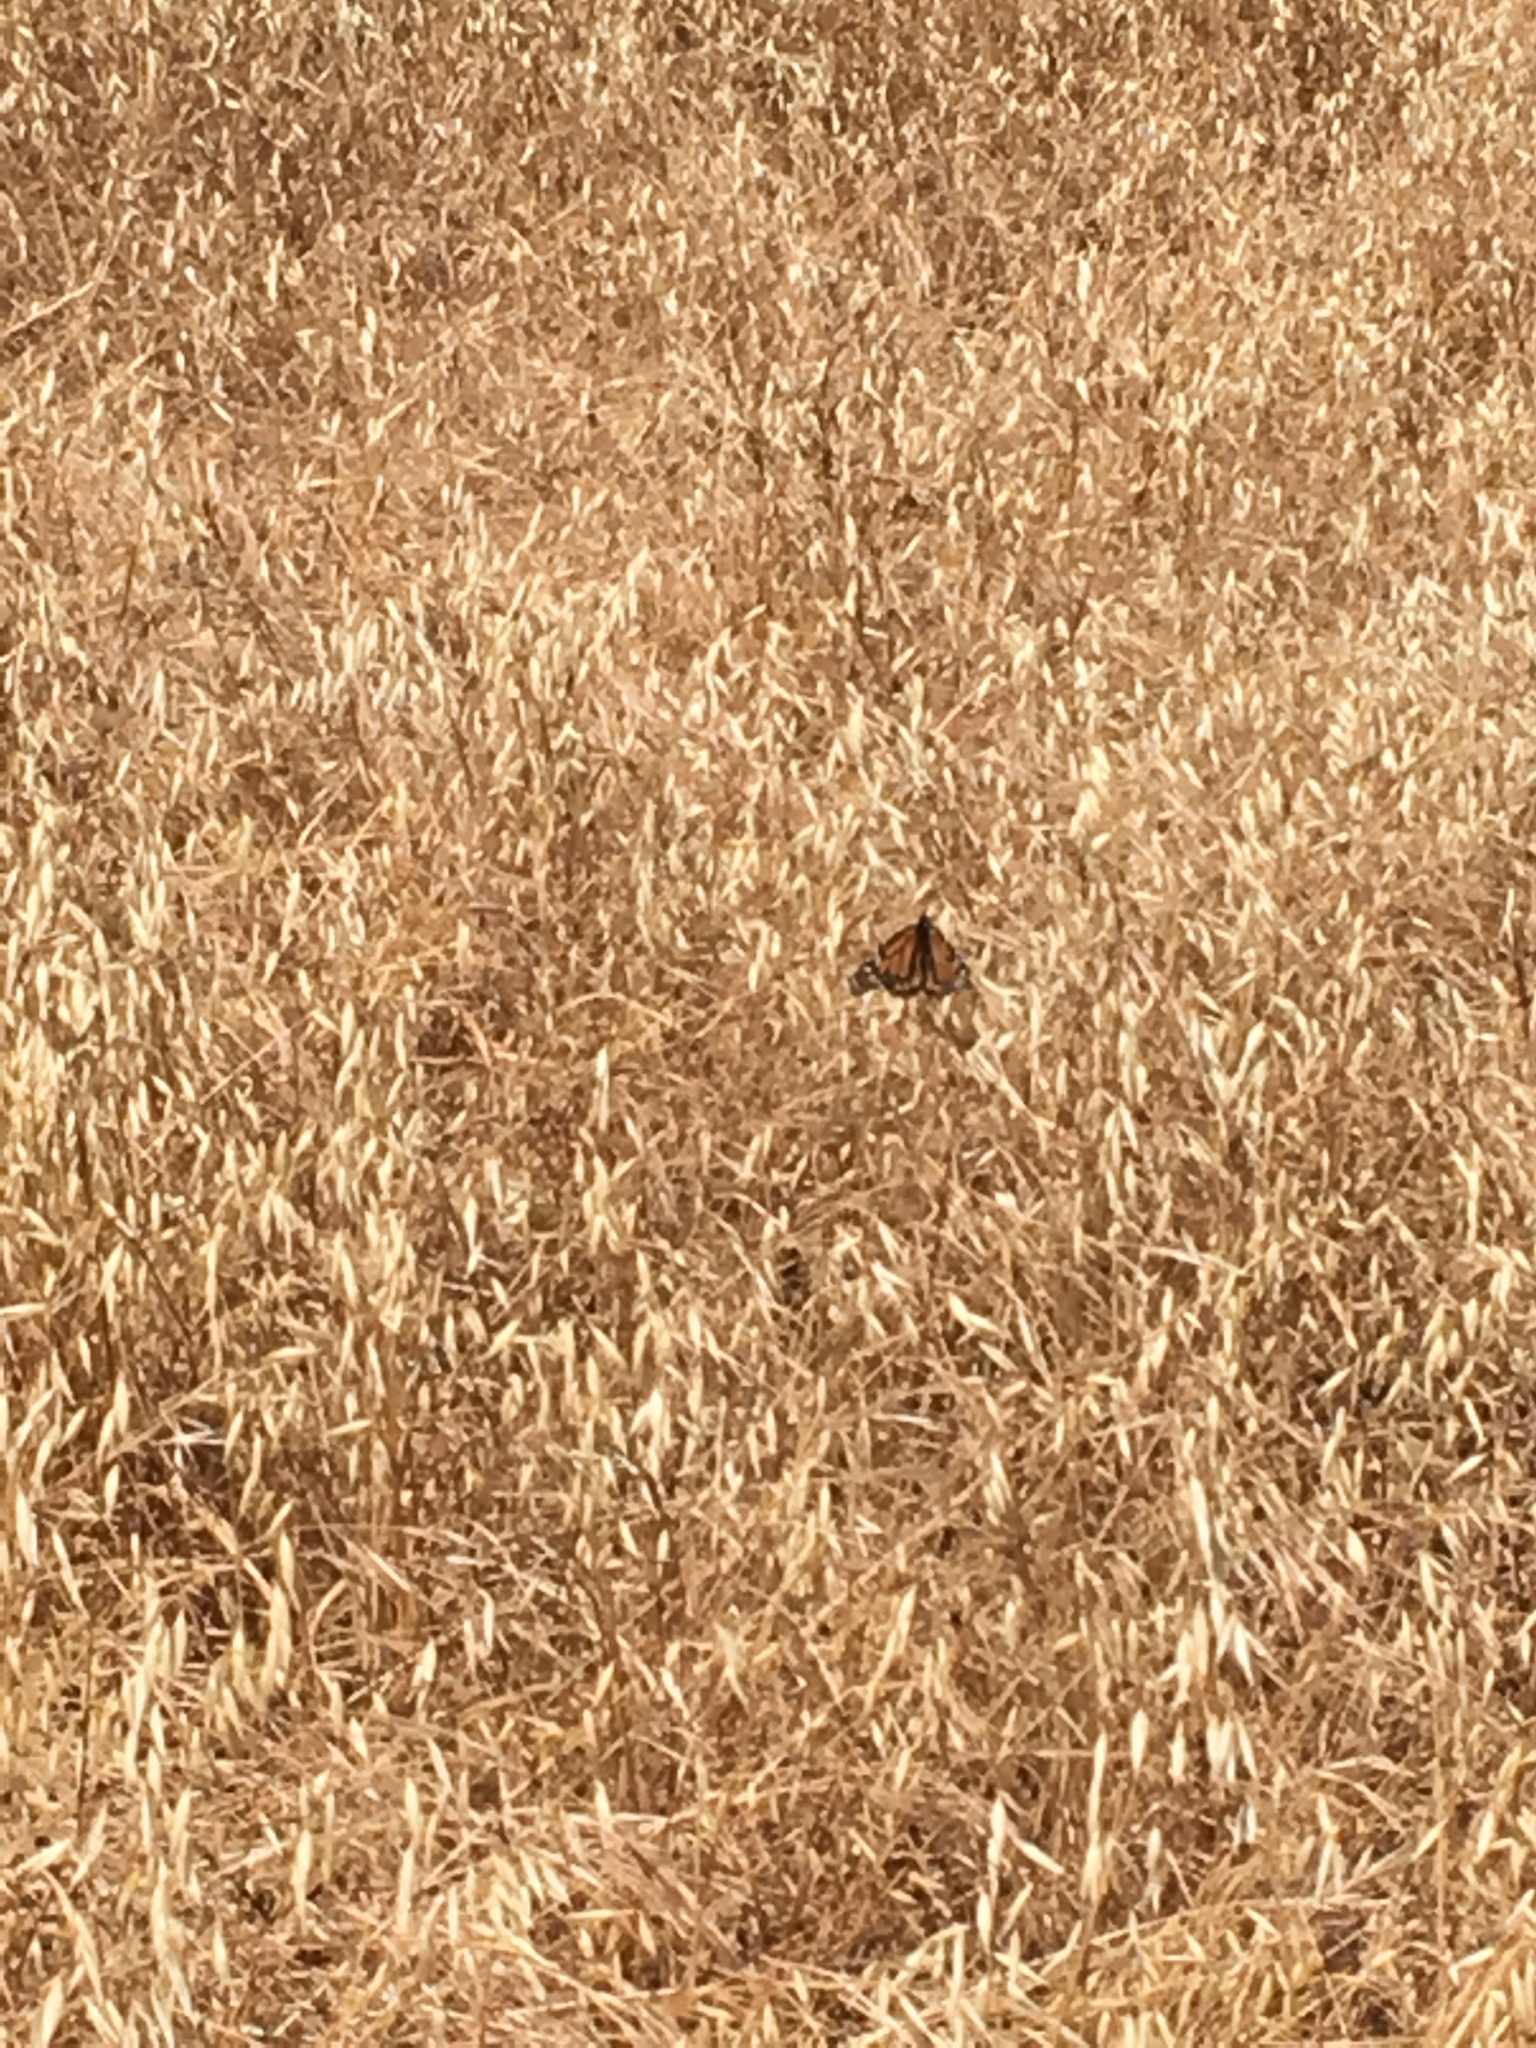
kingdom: Animalia
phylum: Arthropoda
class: Insecta
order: Lepidoptera
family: Nymphalidae
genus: Danaus
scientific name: Danaus plexippus
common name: Monarch
